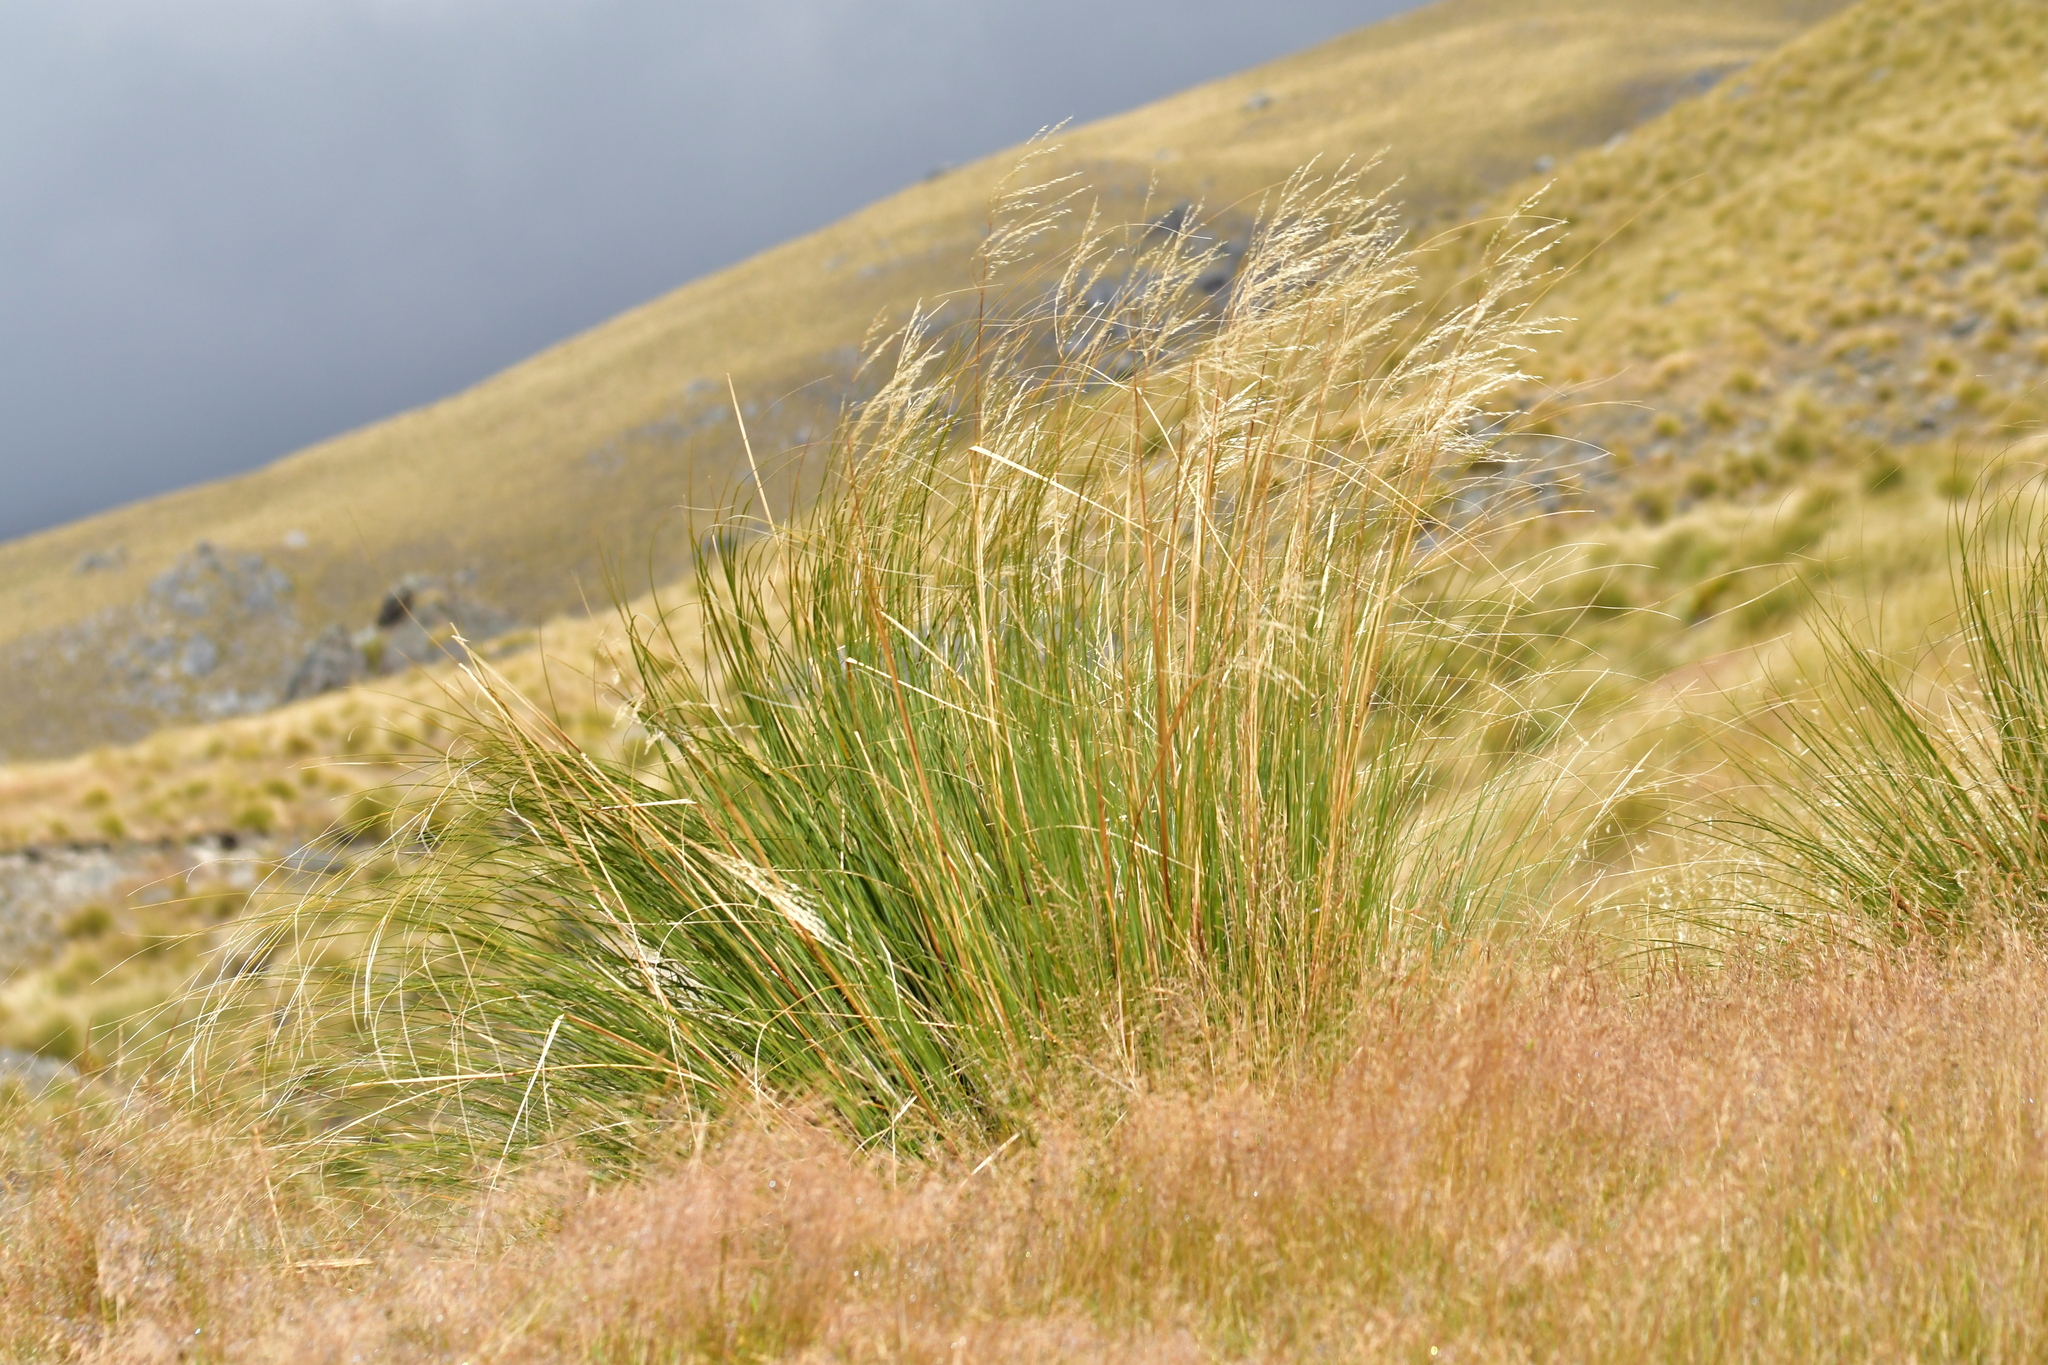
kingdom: Plantae
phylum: Tracheophyta
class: Liliopsida
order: Poales
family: Poaceae
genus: Chionochloa
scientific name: Chionochloa rigida
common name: Narrow leaved snow tussock
